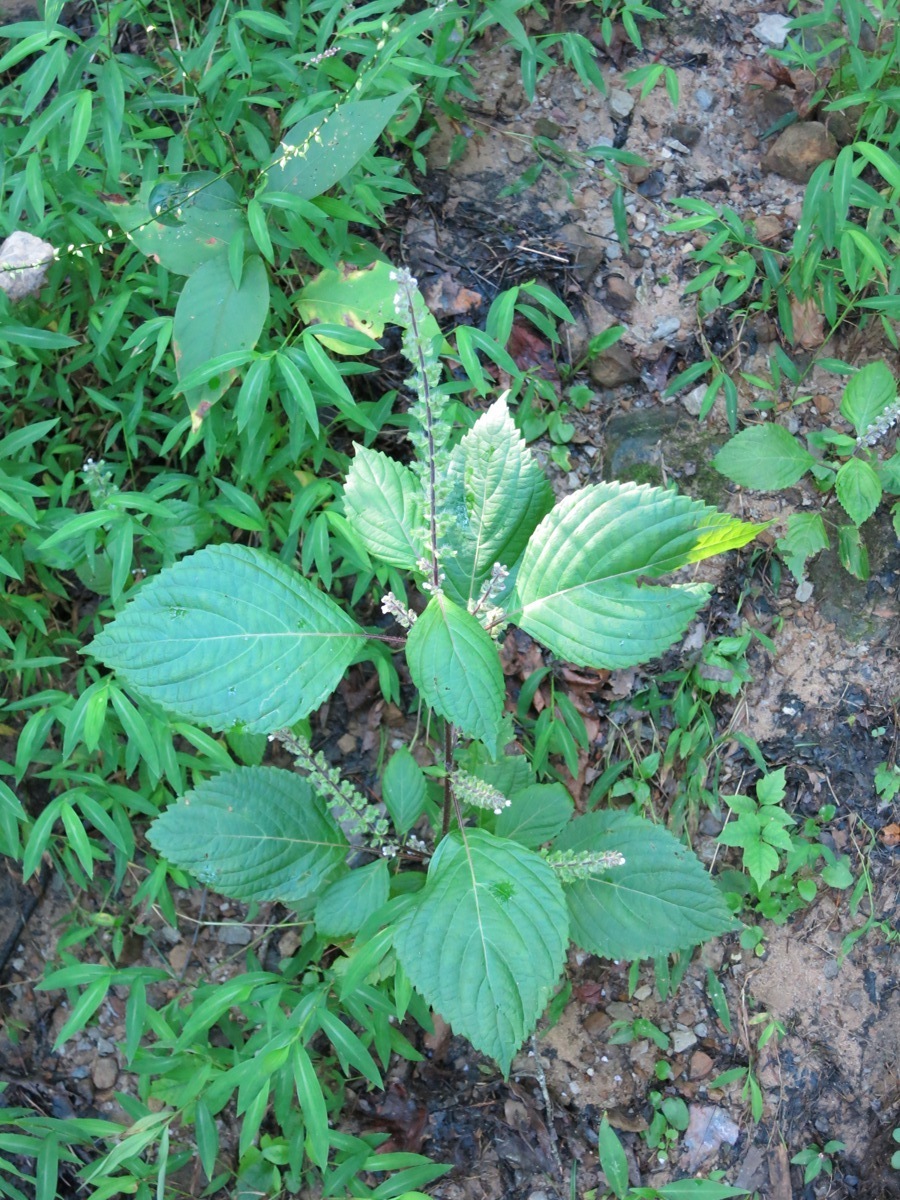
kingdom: Plantae
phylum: Tracheophyta
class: Magnoliopsida
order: Lamiales
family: Lamiaceae
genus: Perilla
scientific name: Perilla frutescens
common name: Perilla
